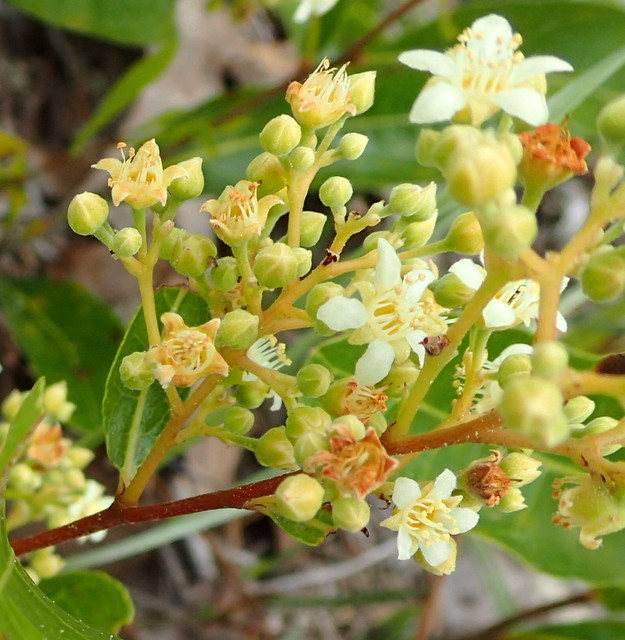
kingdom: Plantae
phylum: Tracheophyta
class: Magnoliopsida
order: Malpighiales
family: Chrysobalanaceae
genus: Geobalanus
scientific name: Geobalanus oblongifolius
